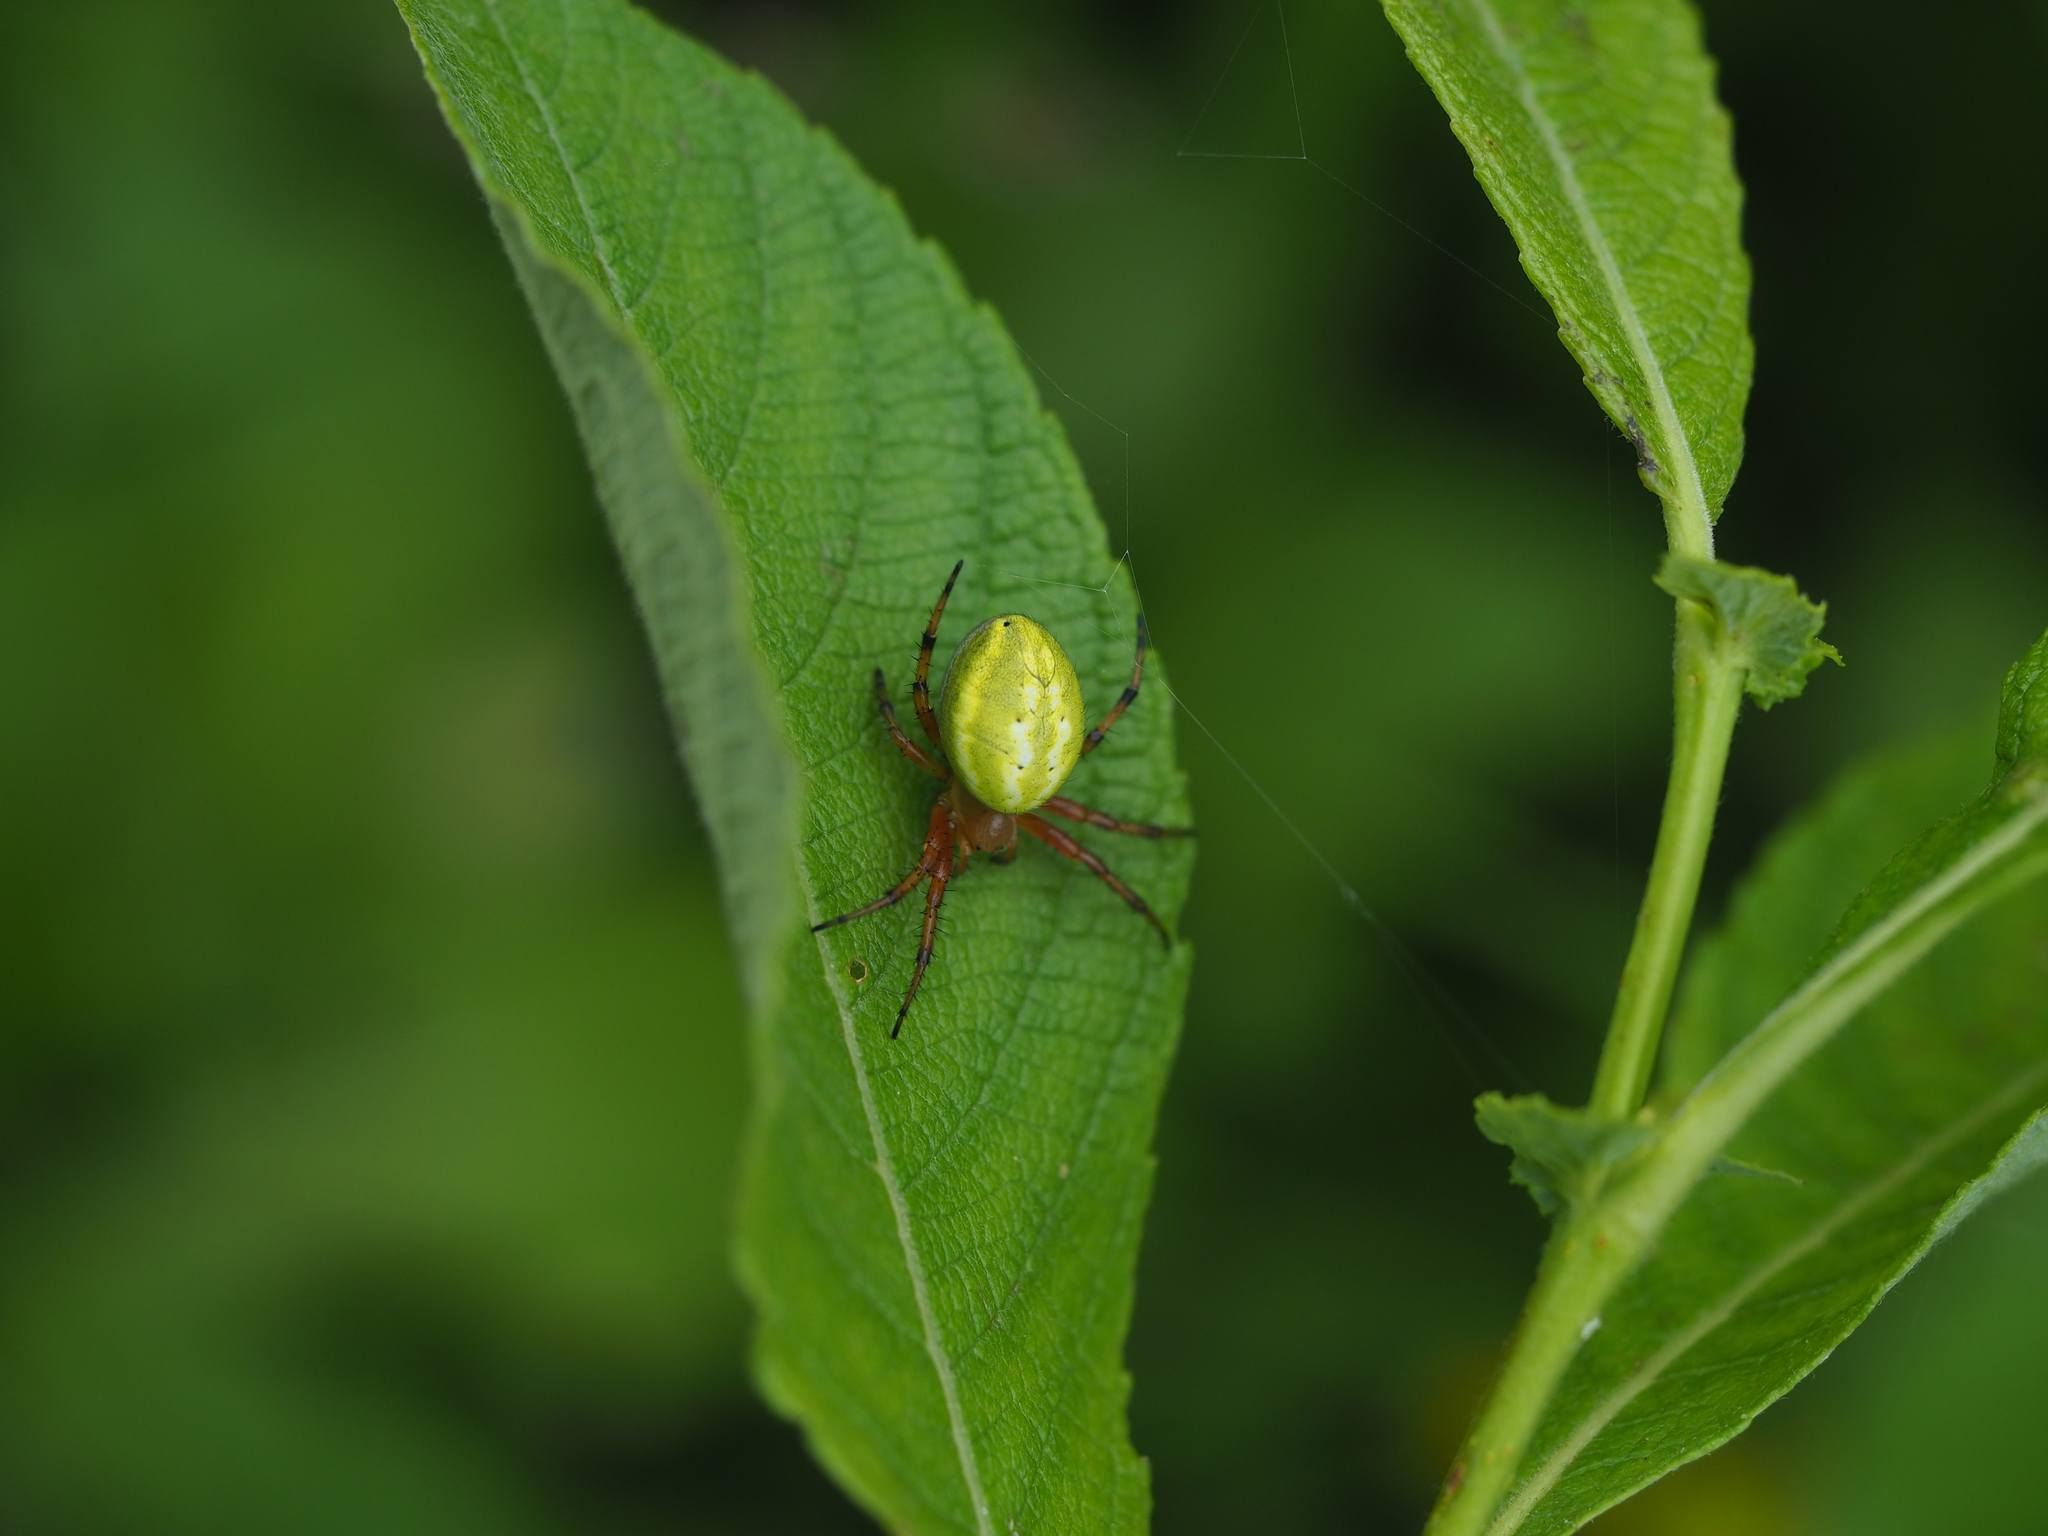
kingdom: Animalia
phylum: Arthropoda
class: Arachnida
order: Araneae
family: Araneidae
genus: Araniella
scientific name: Araniella alpica
